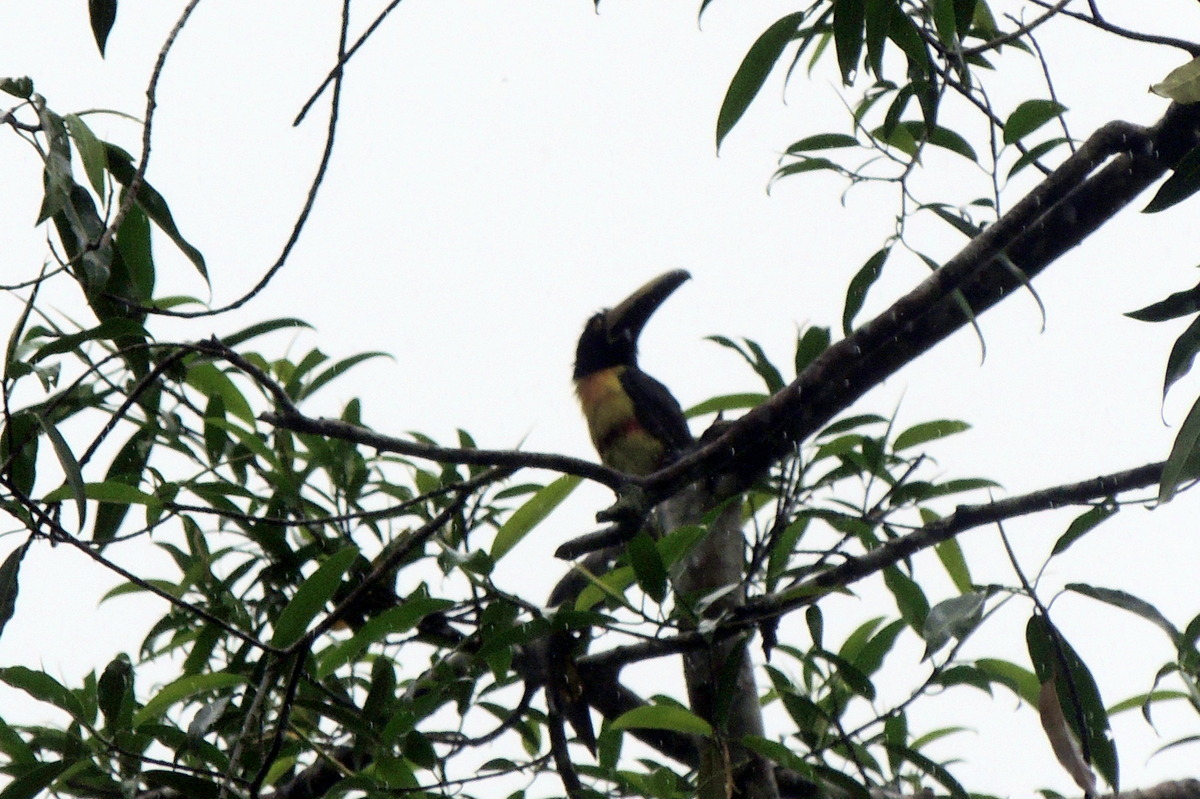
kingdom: Animalia
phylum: Chordata
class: Aves
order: Piciformes
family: Ramphastidae
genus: Pteroglossus
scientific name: Pteroglossus torquatus
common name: Collared aracari
